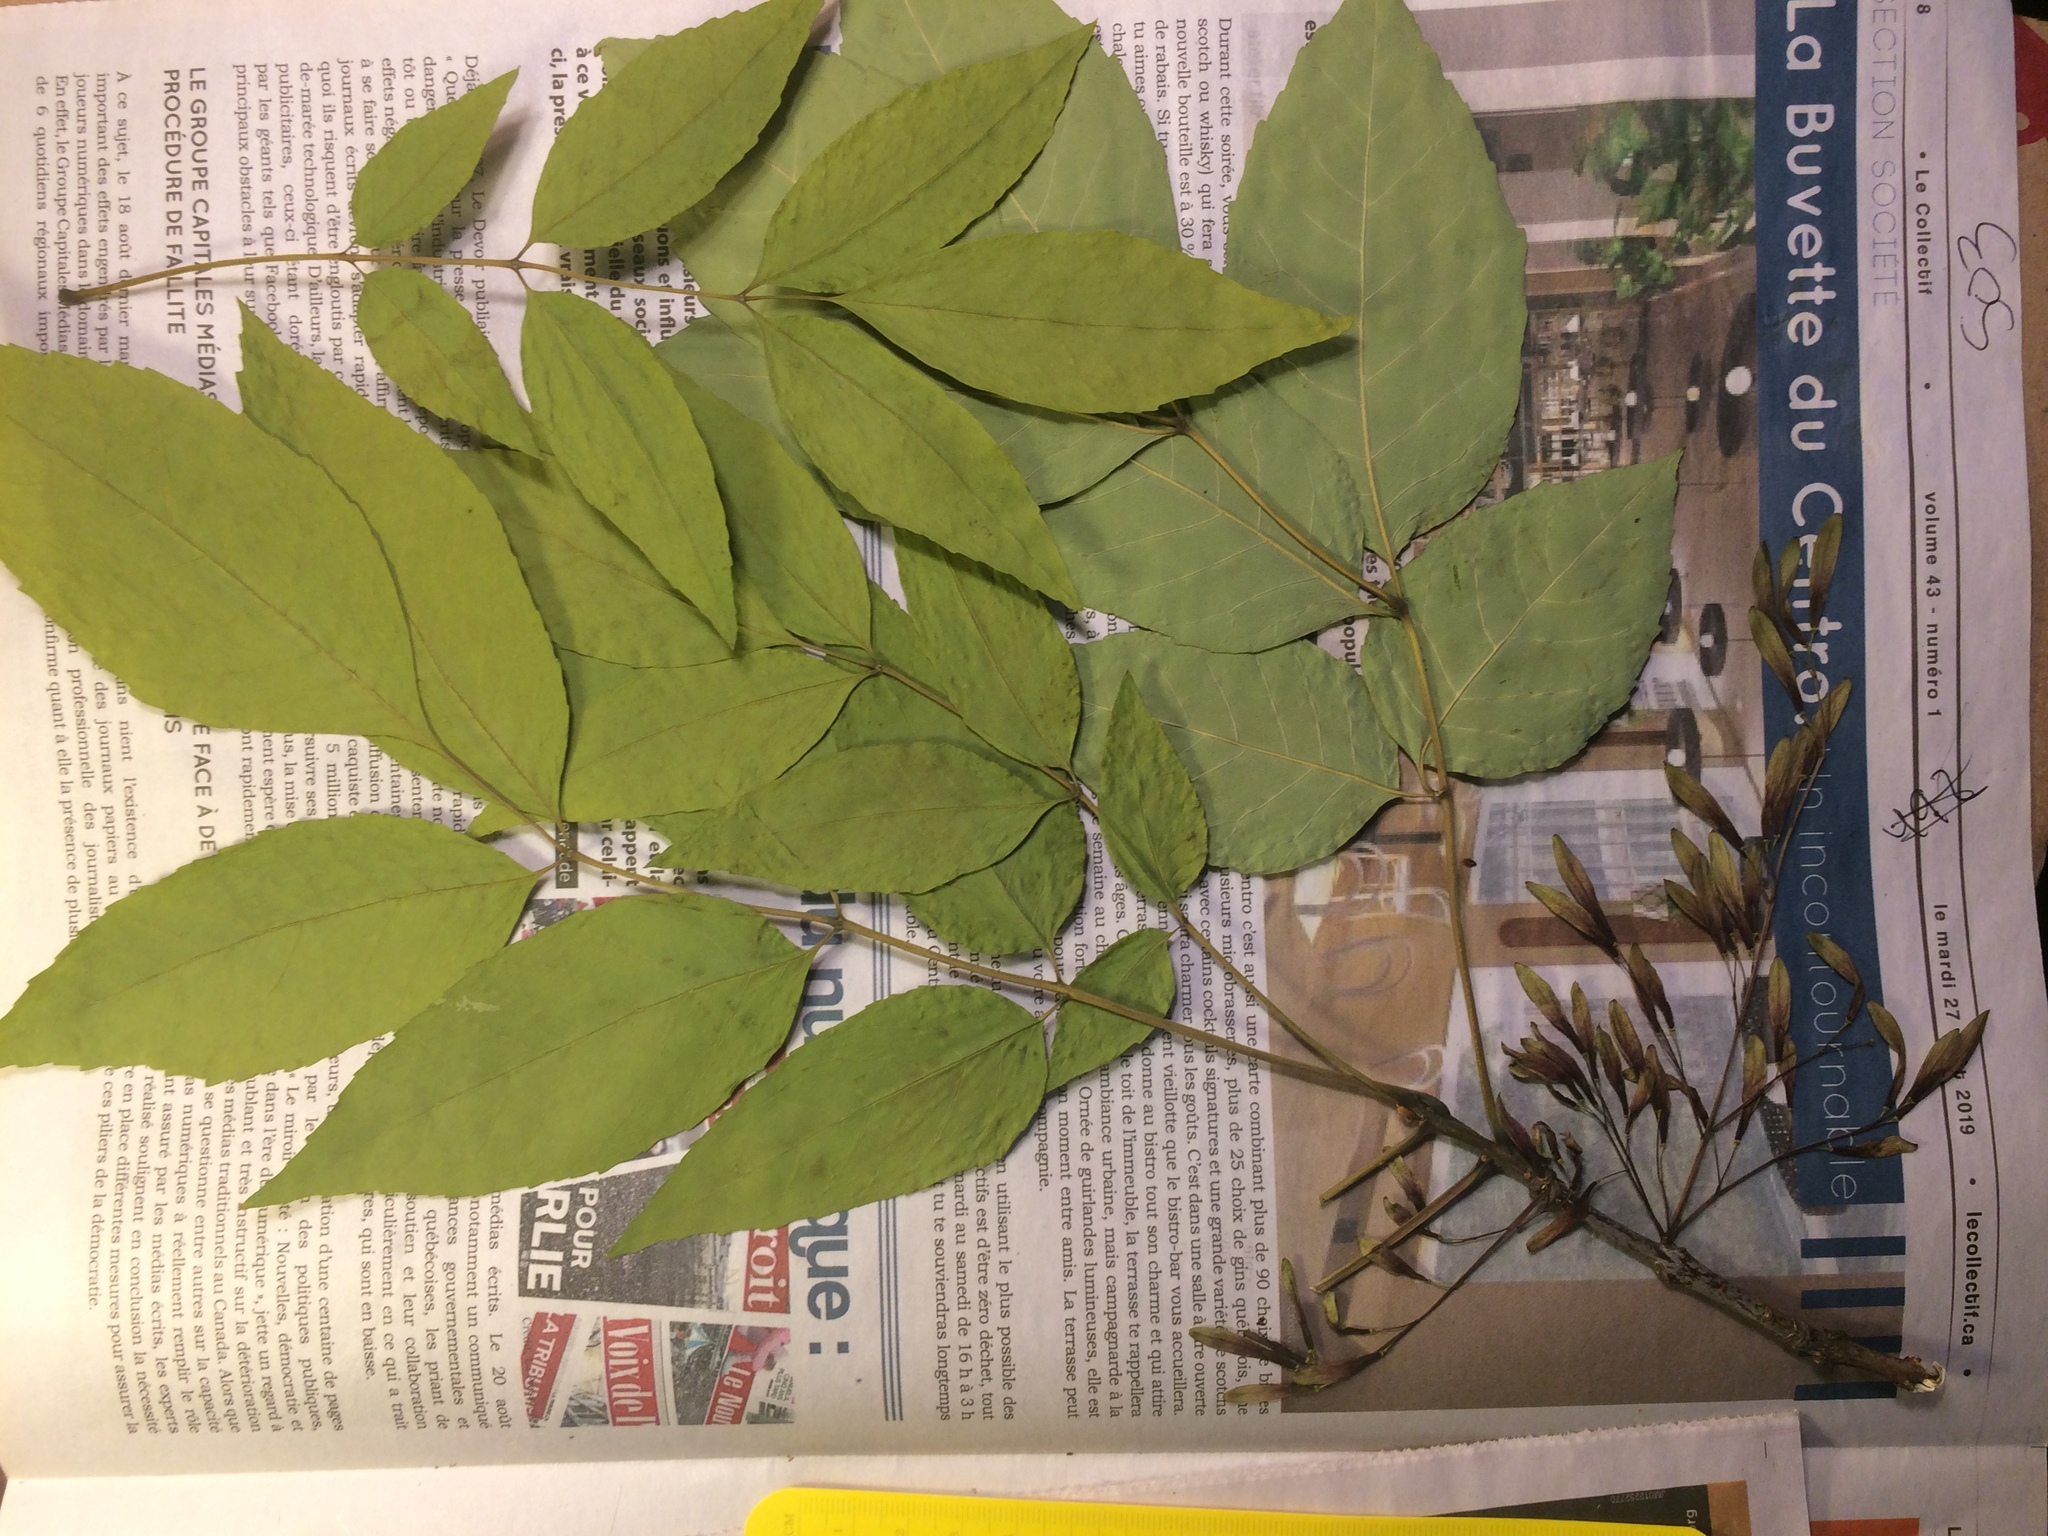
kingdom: Plantae
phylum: Tracheophyta
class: Magnoliopsida
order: Lamiales
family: Oleaceae
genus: Fraxinus
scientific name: Fraxinus americana
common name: White ash
